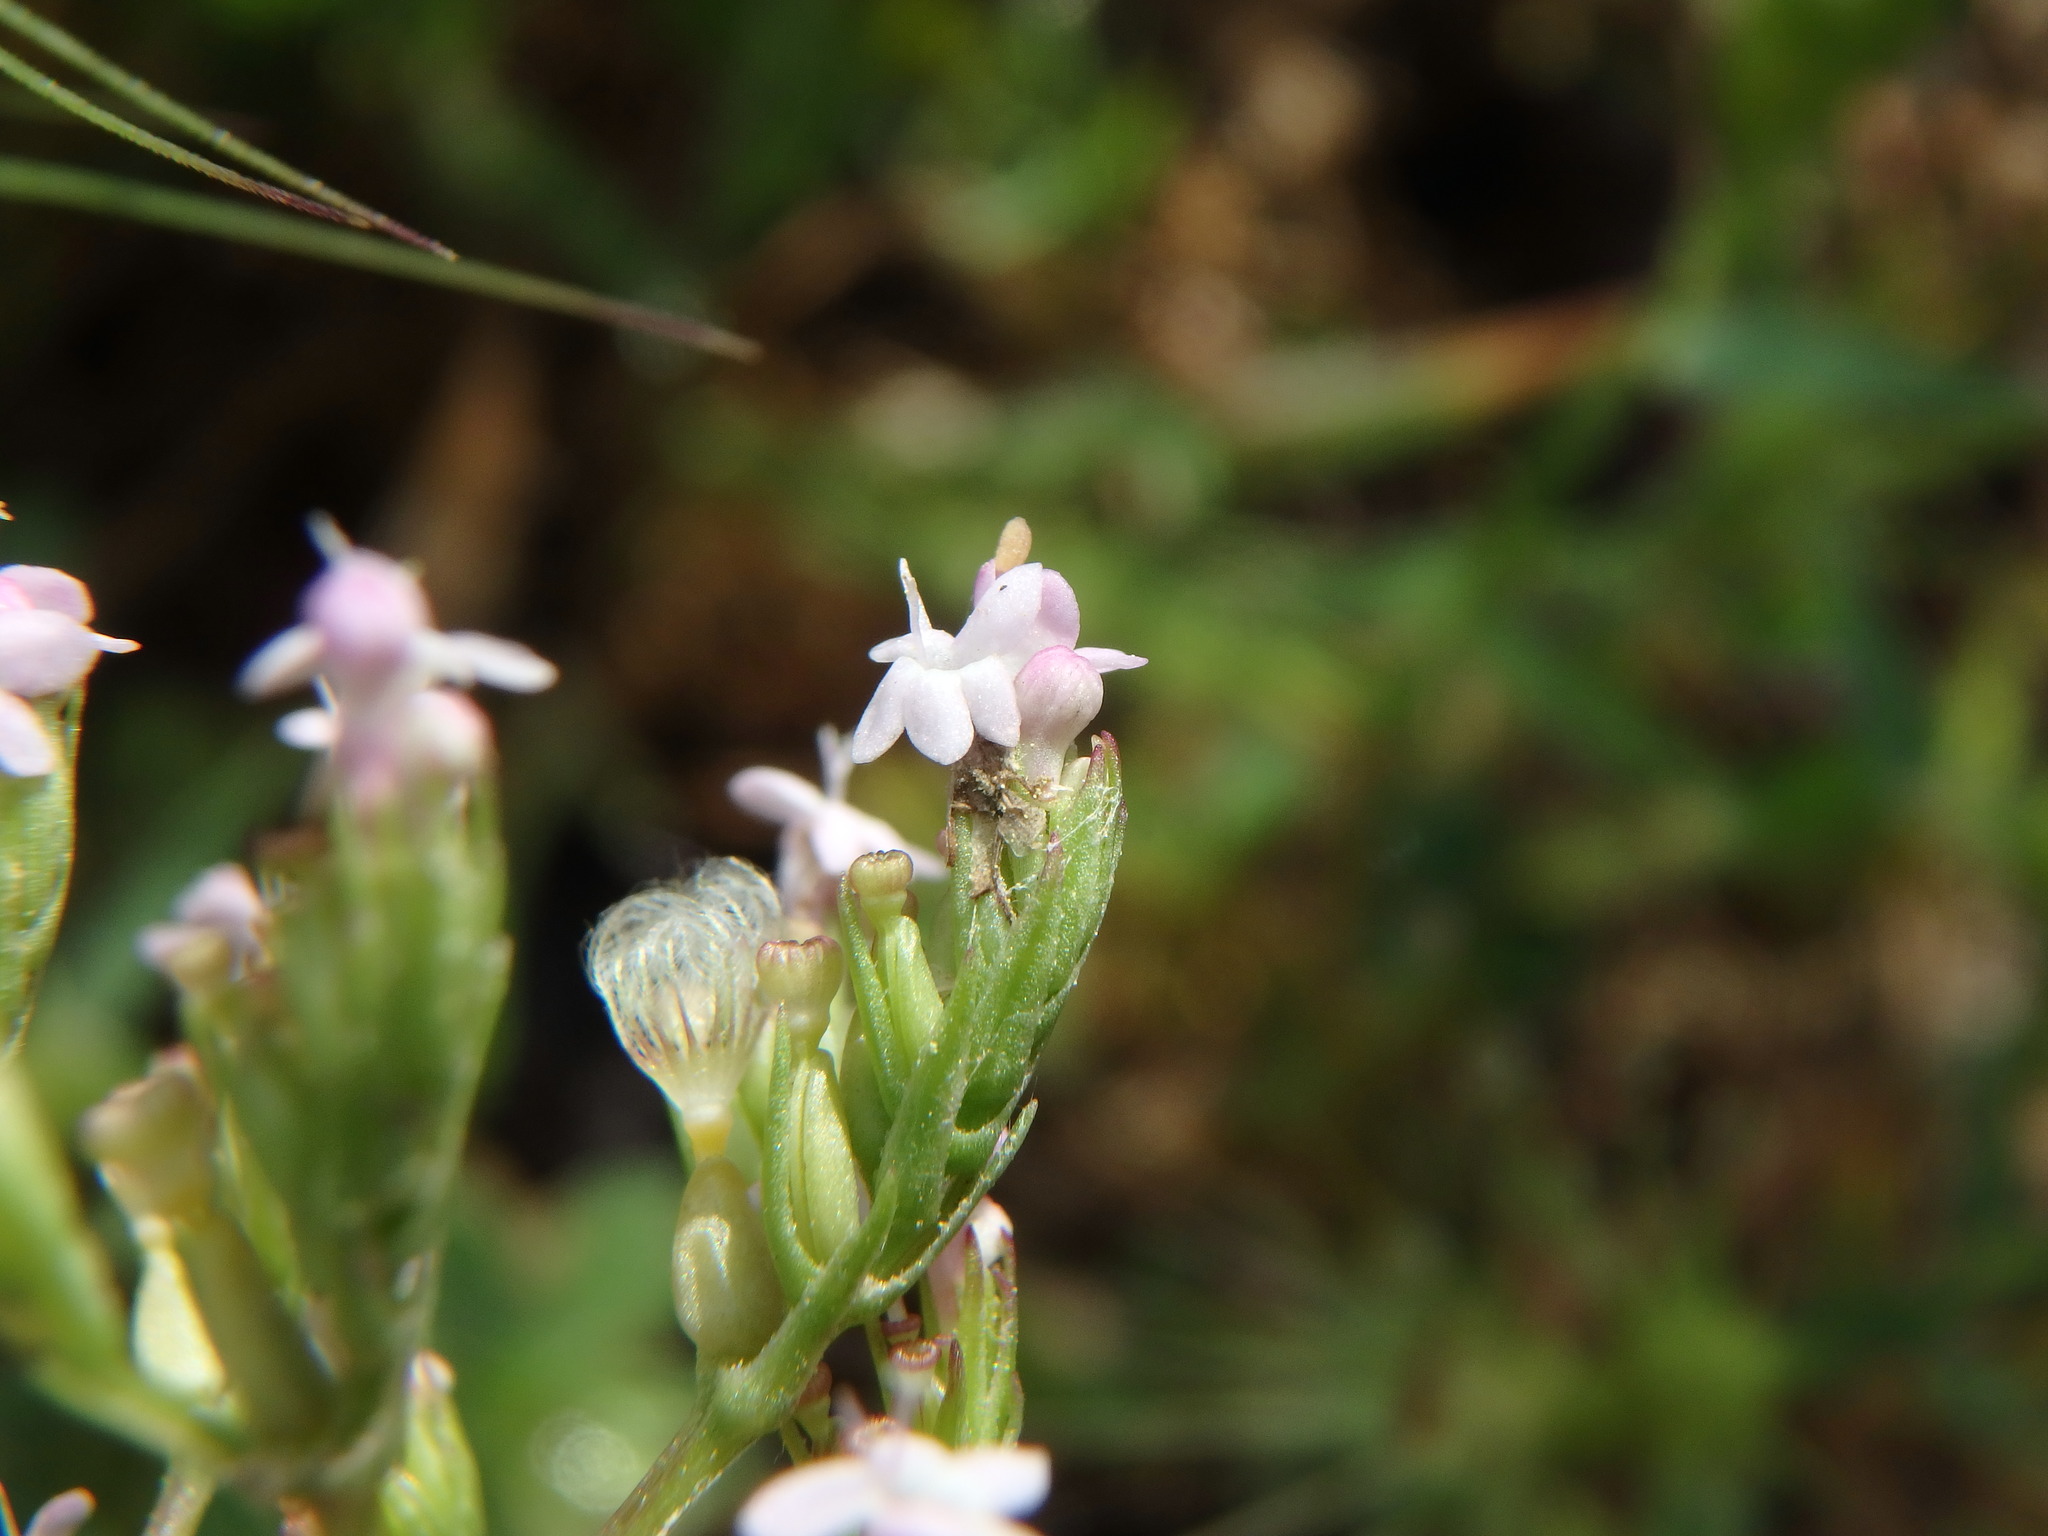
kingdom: Plantae
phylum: Tracheophyta
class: Magnoliopsida
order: Dipsacales
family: Caprifoliaceae
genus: Centranthus
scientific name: Centranthus calcitrapae
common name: Annual valerian
